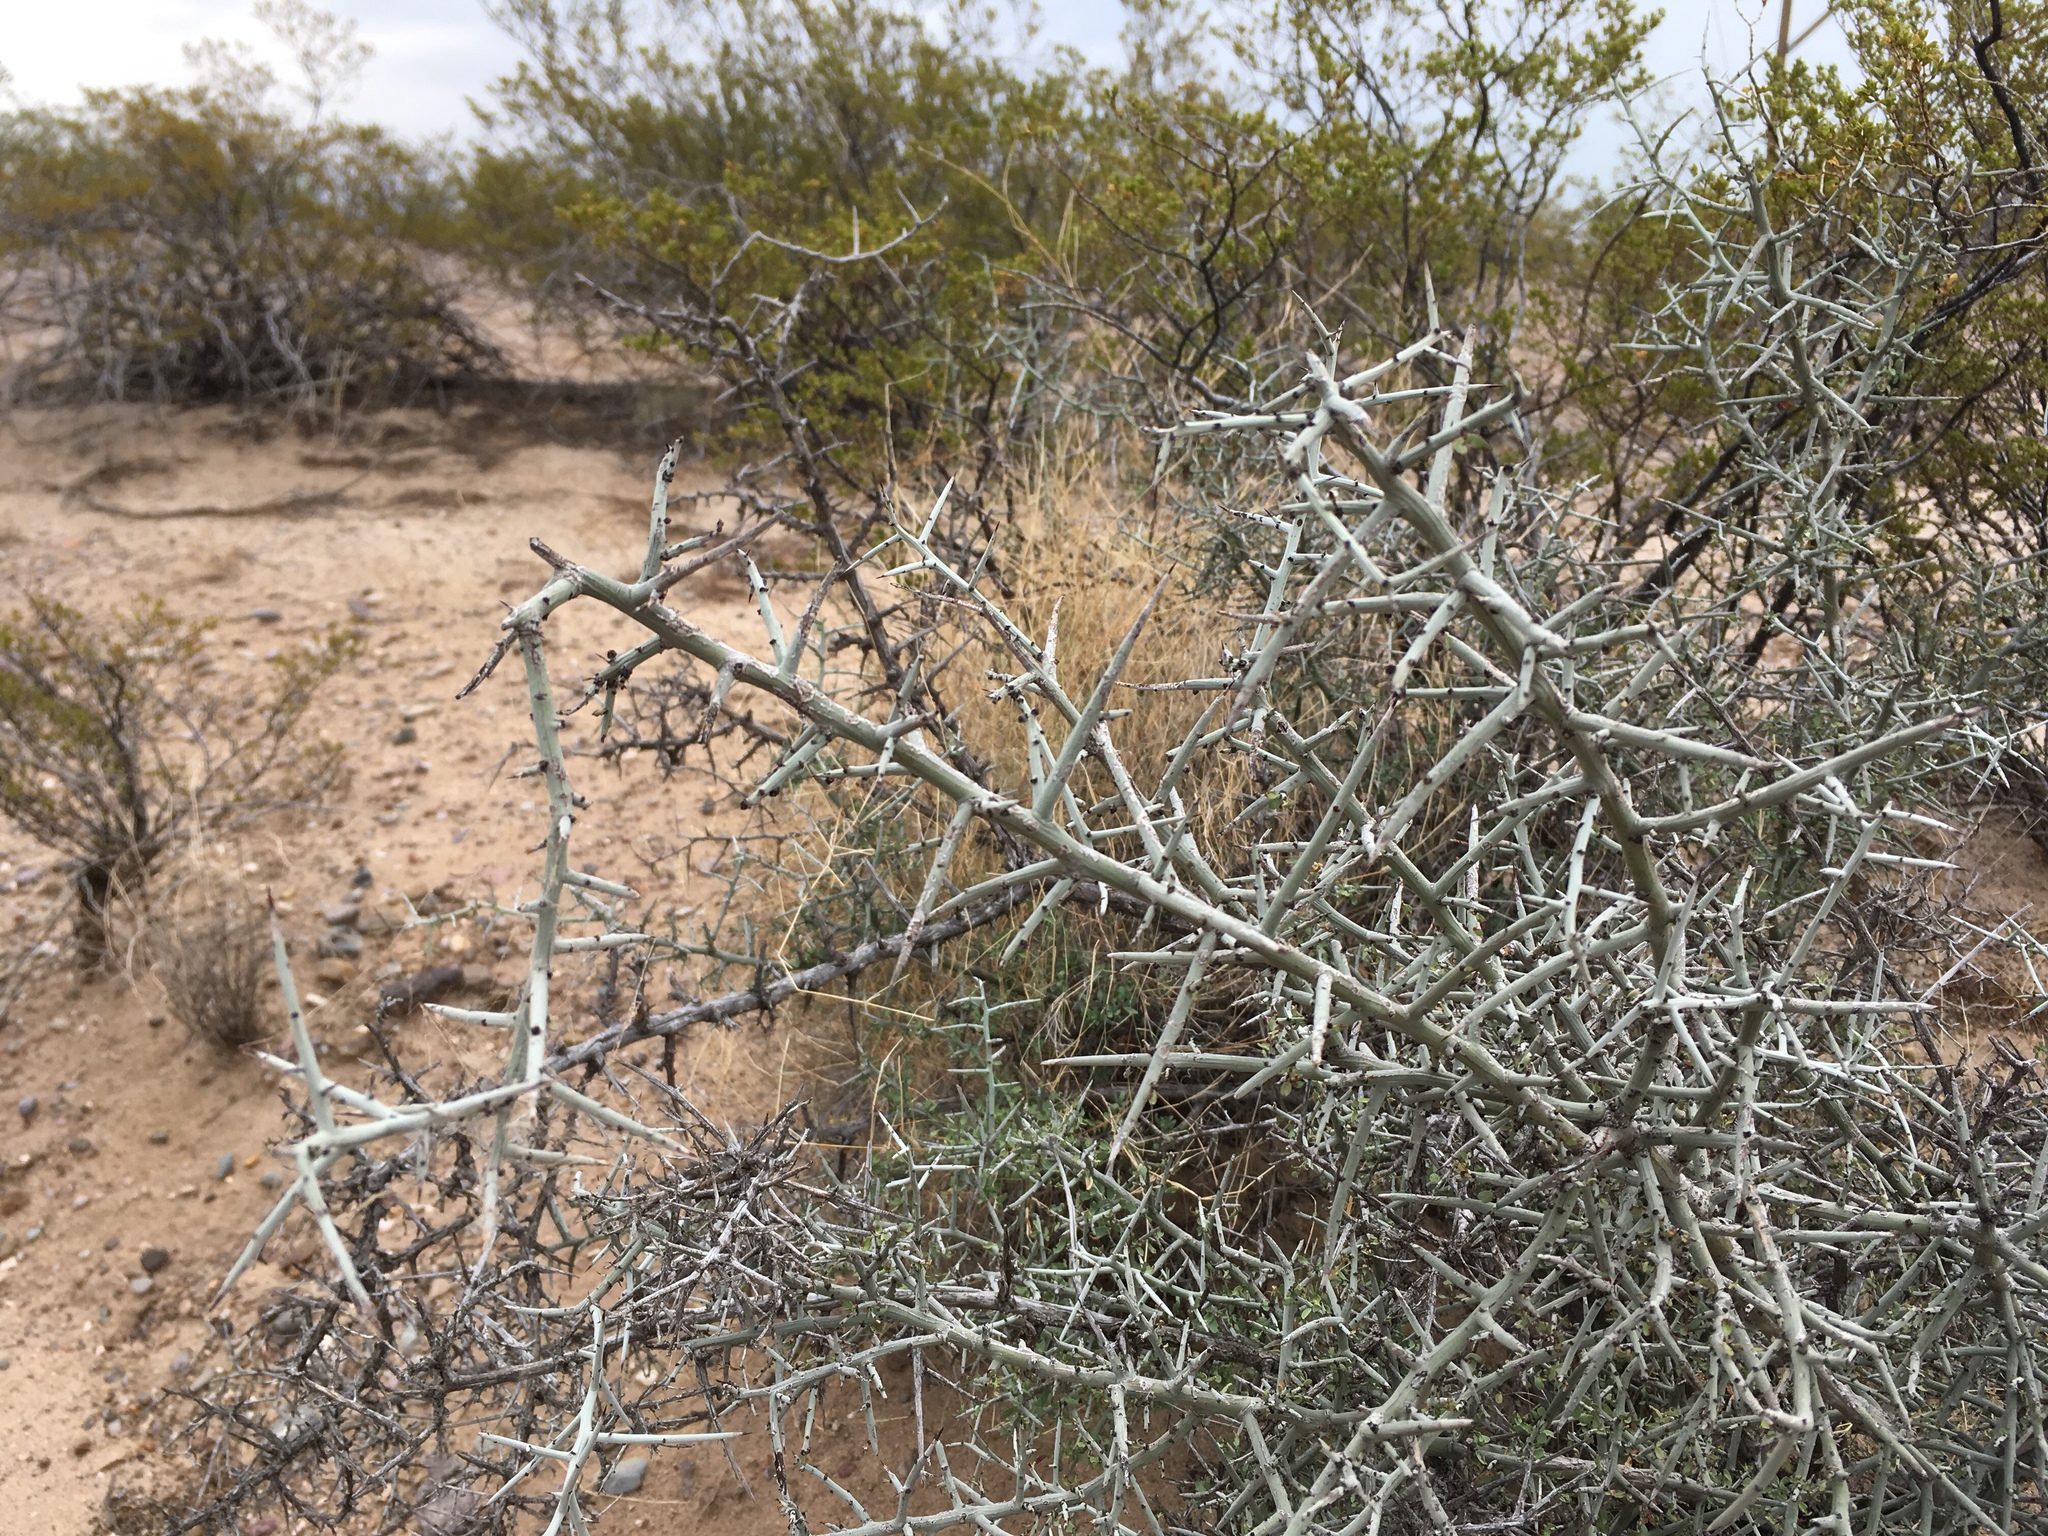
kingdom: Plantae
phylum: Tracheophyta
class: Magnoliopsida
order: Rosales
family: Rhamnaceae
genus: Sarcomphalus
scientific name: Sarcomphalus obtusifolius
